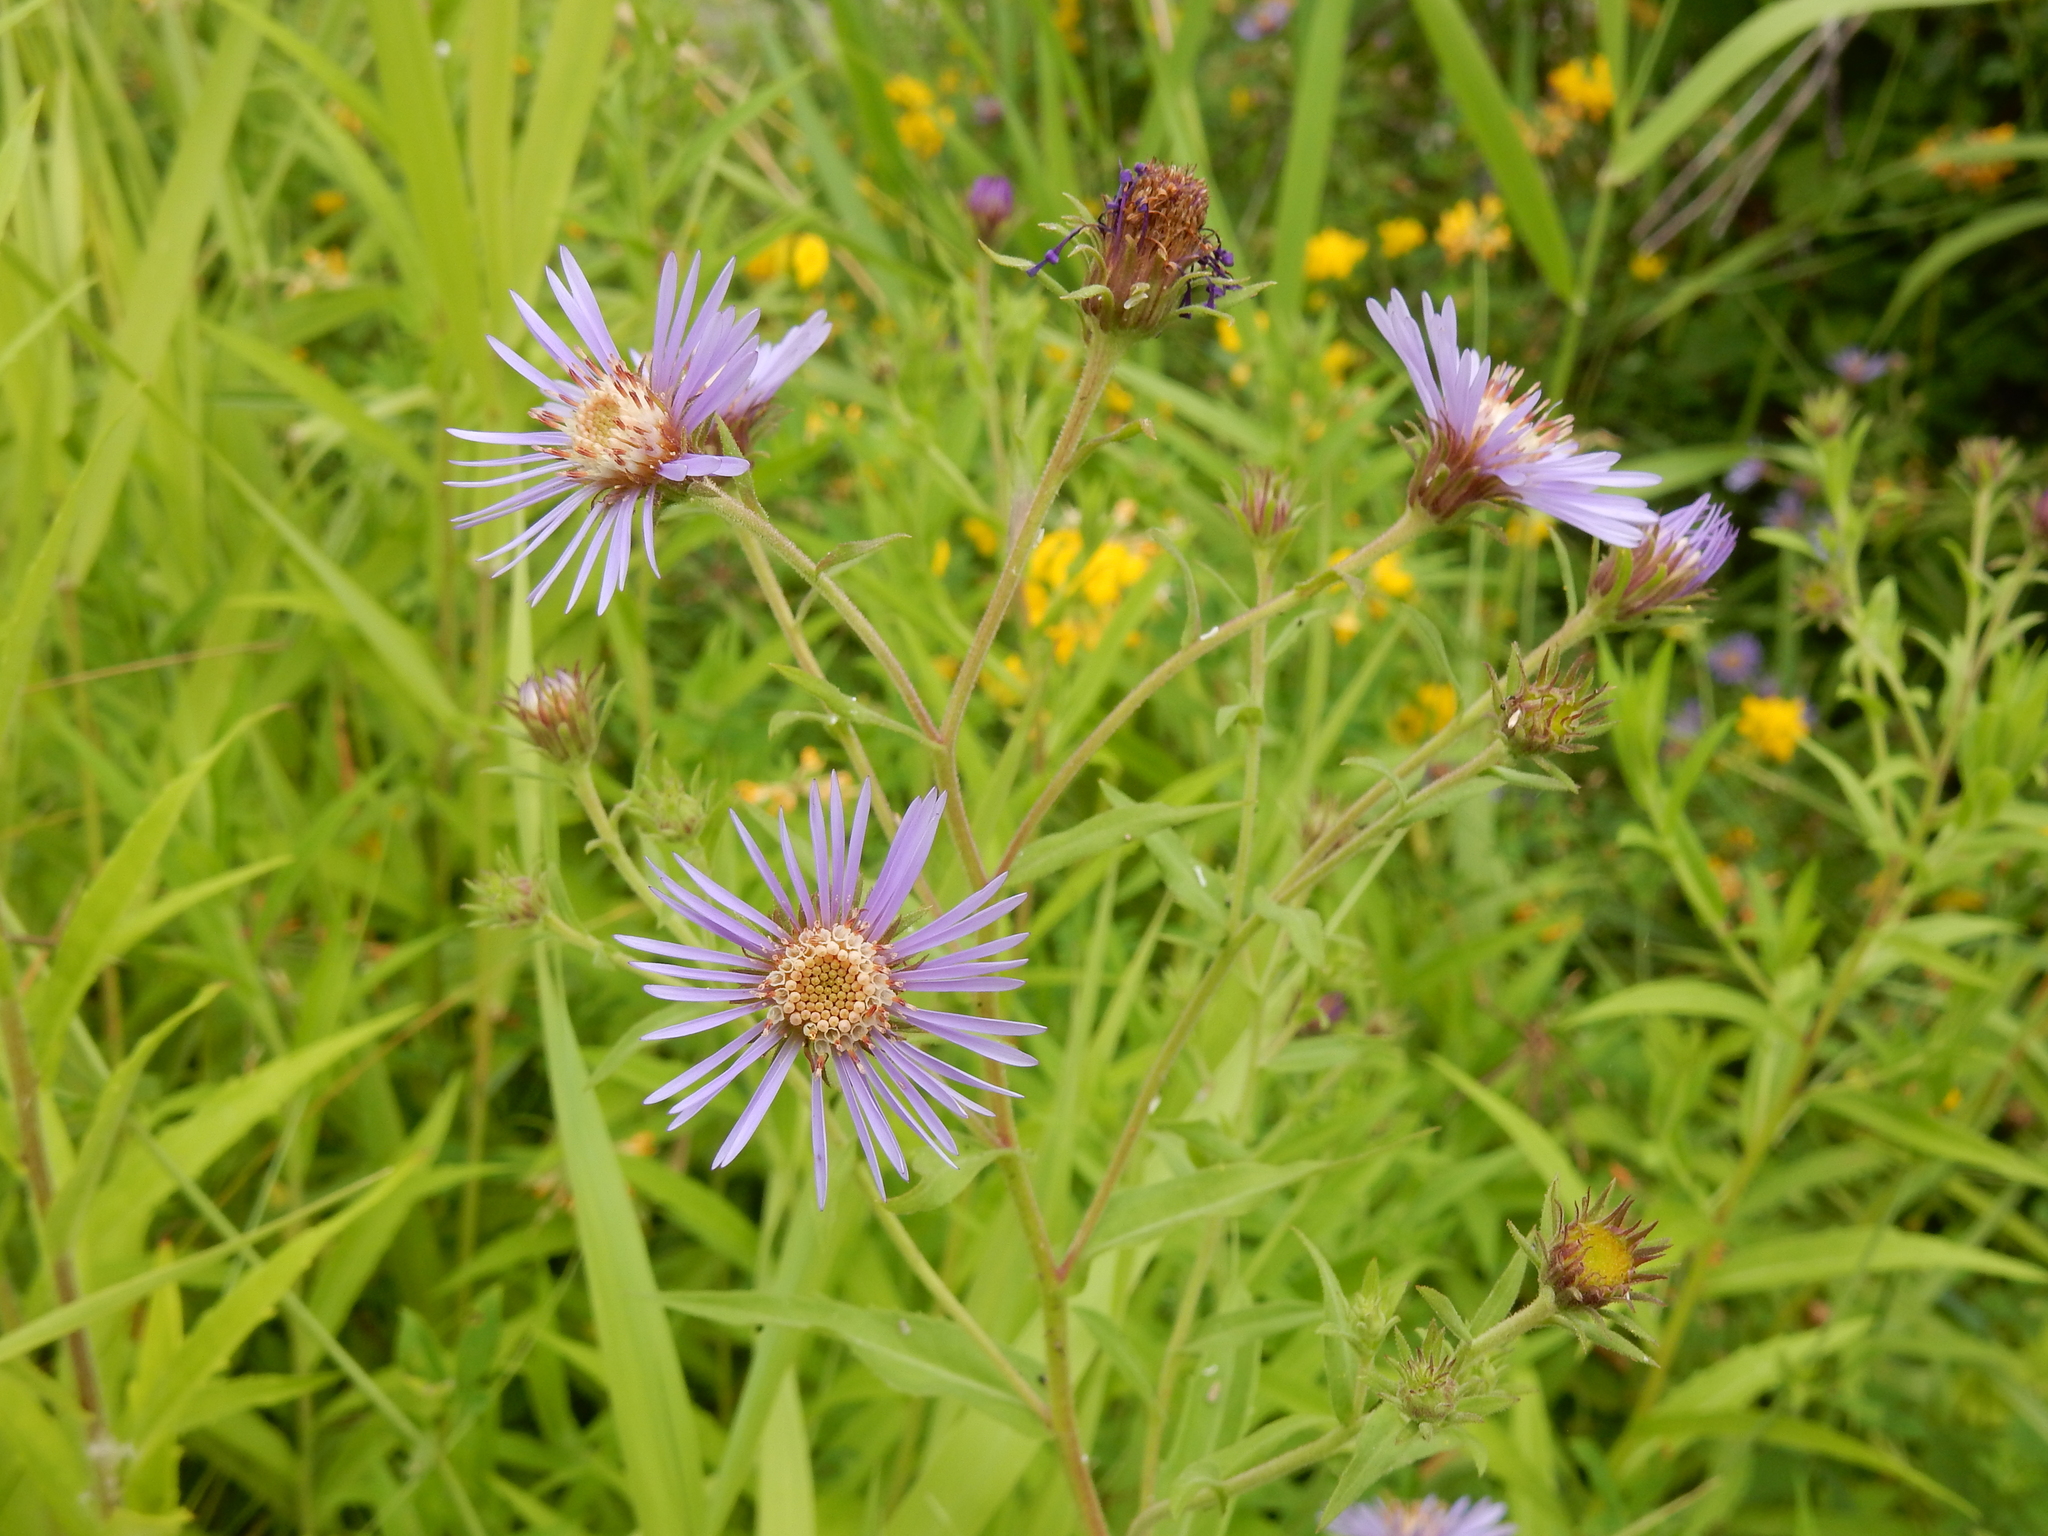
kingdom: Plantae
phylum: Tracheophyta
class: Magnoliopsida
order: Asterales
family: Asteraceae
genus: Canadanthus
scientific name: Canadanthus modestus
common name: Great northern aster
